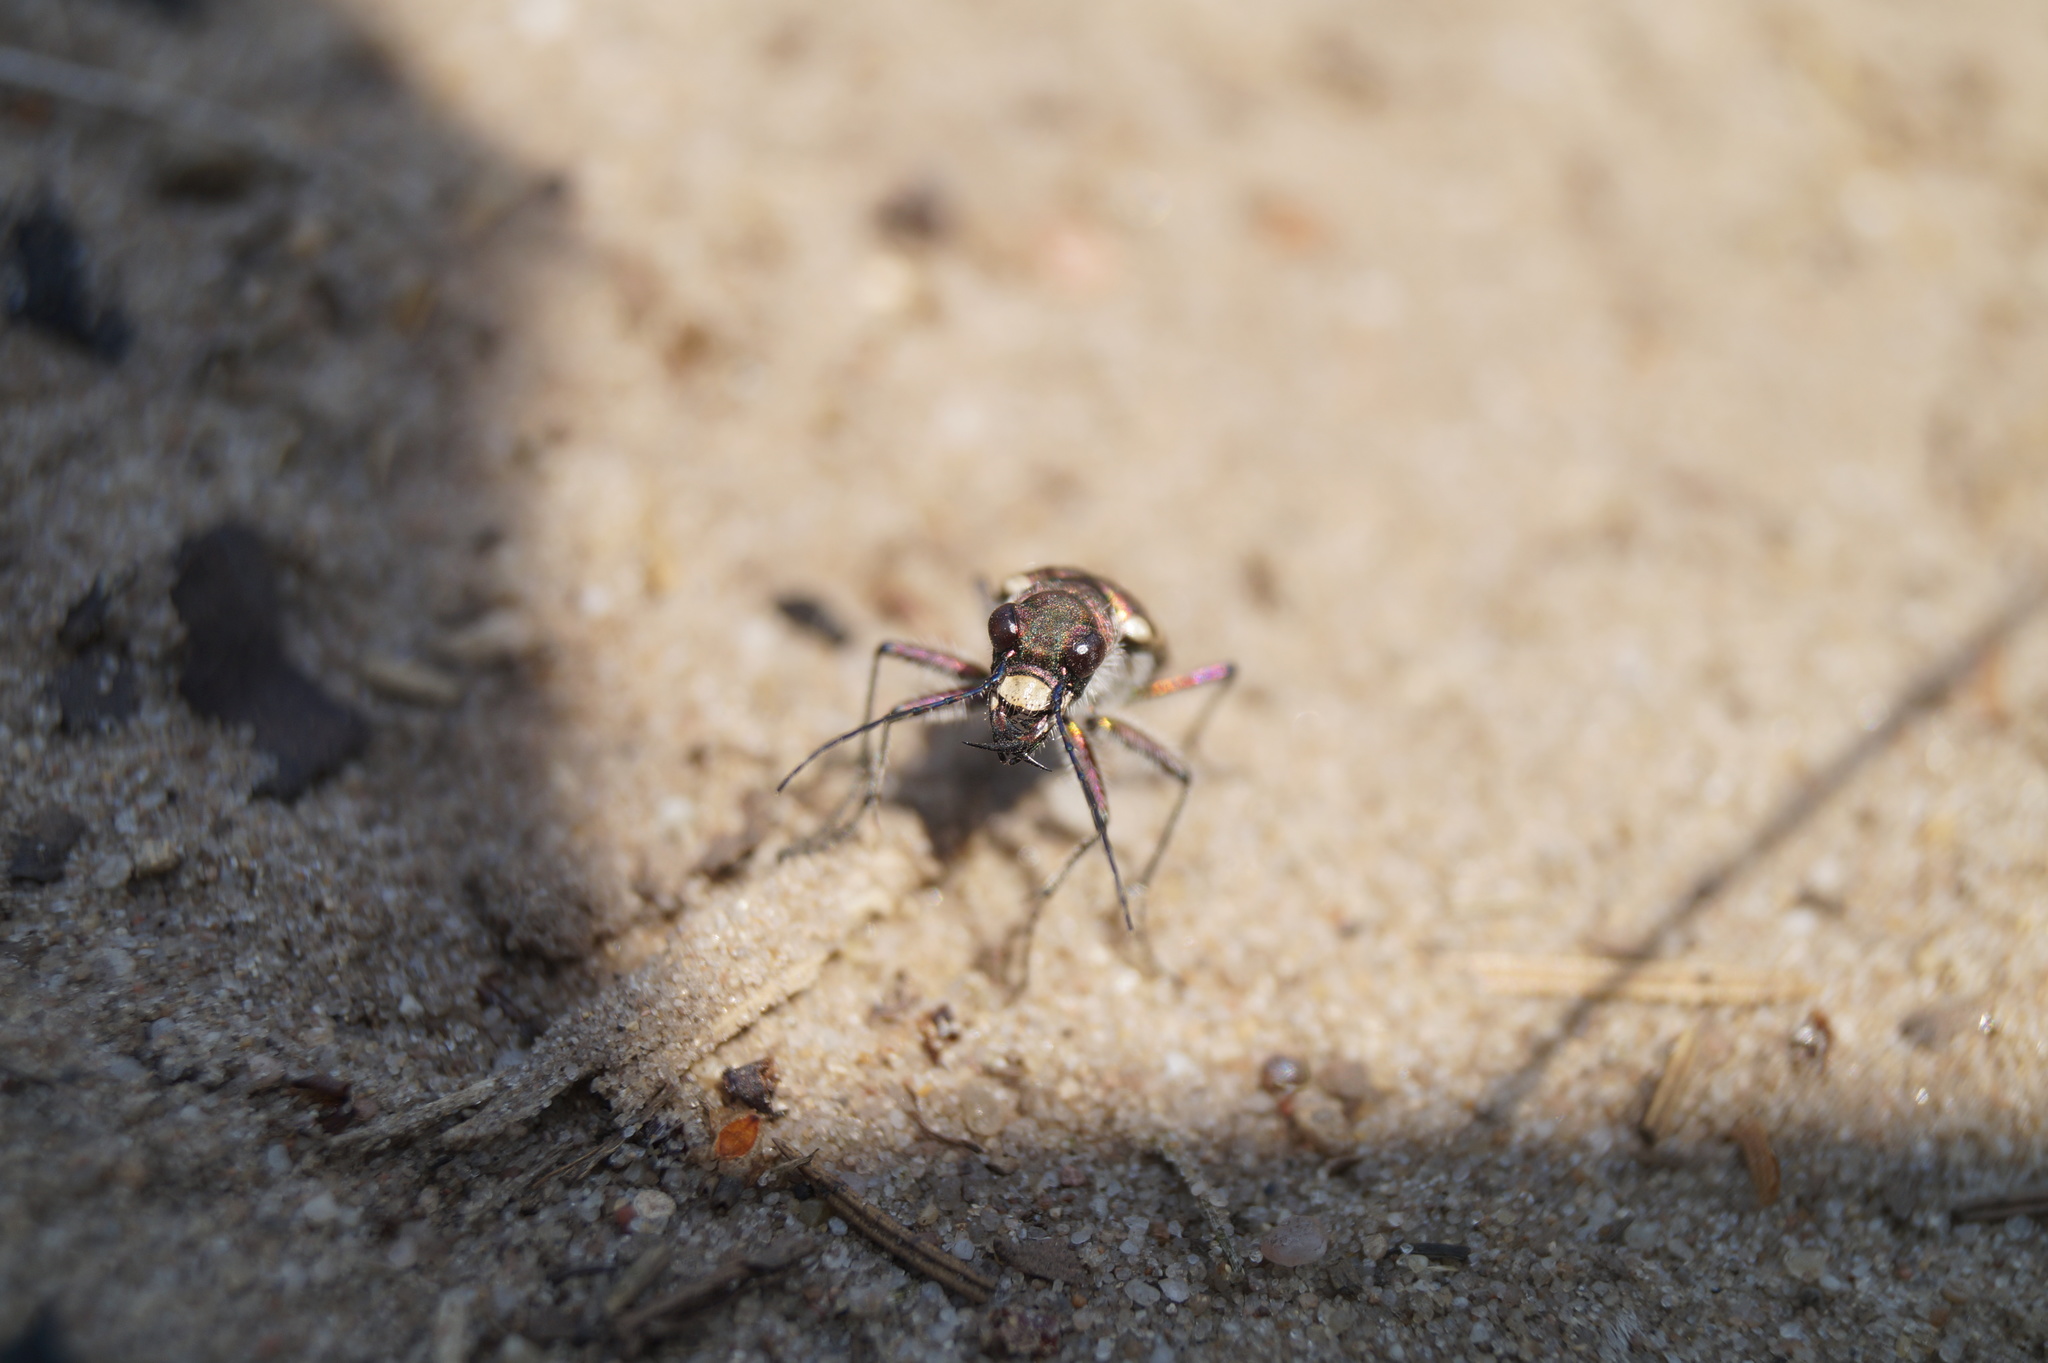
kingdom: Animalia
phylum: Arthropoda
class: Insecta
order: Coleoptera
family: Carabidae
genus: Cicindela
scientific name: Cicindela hybrida
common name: Northern dune tiger beetle
